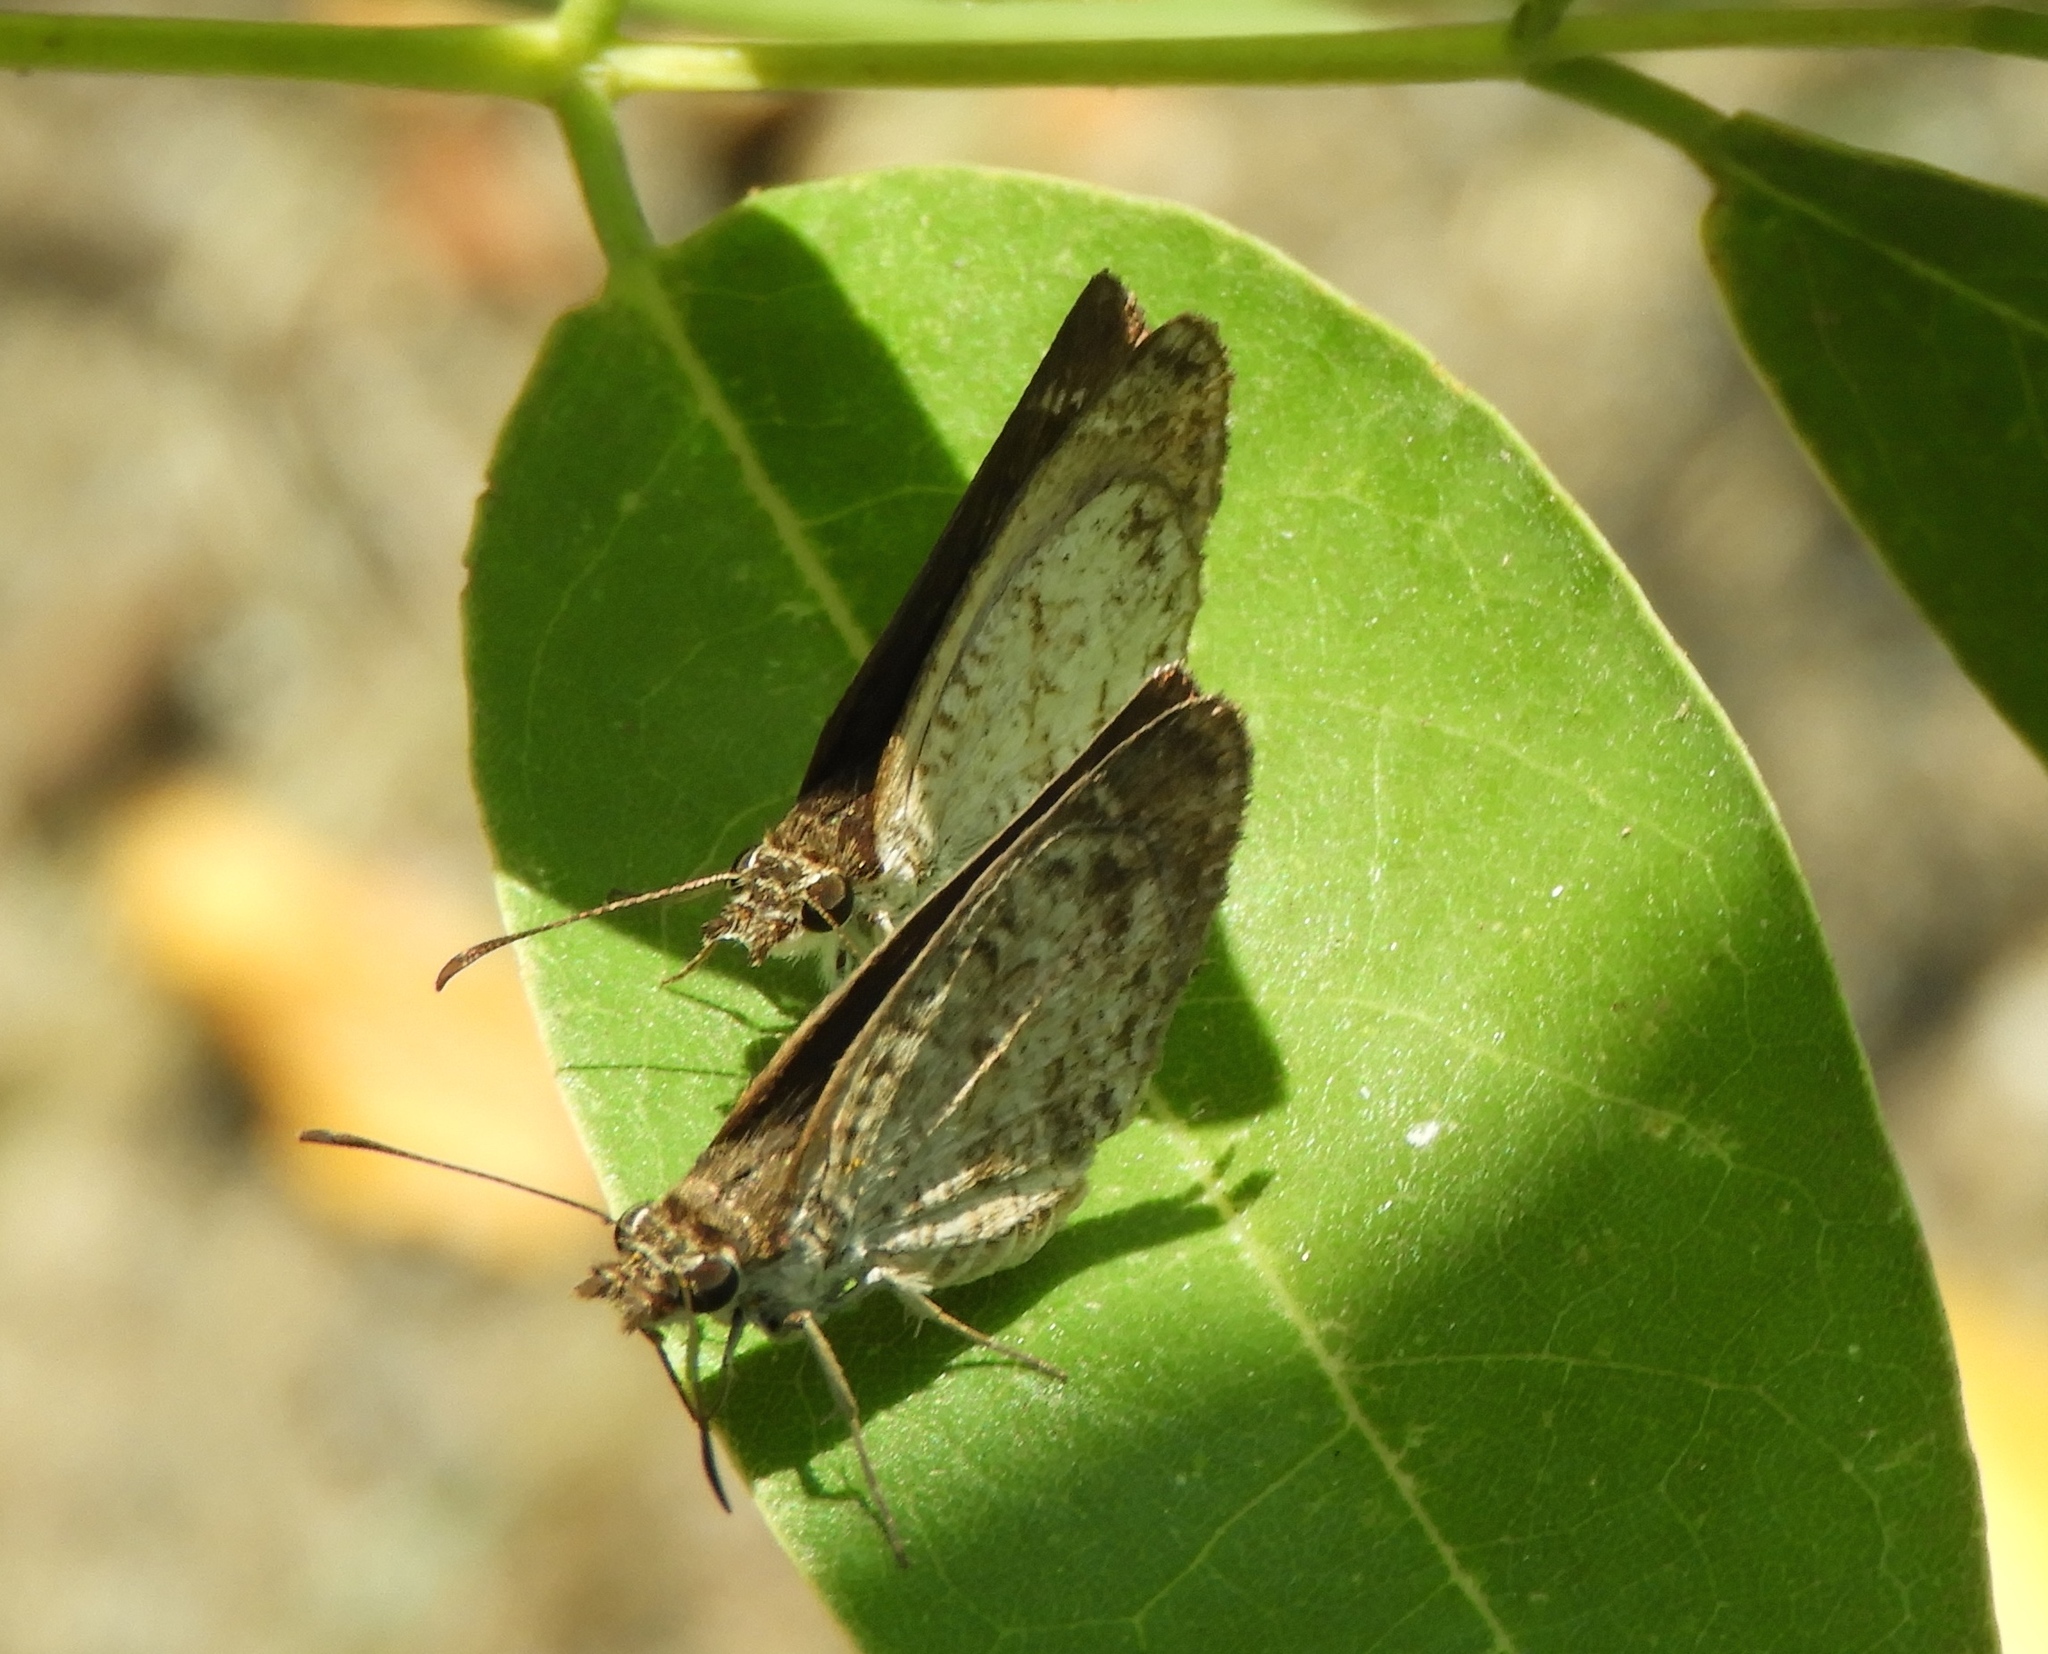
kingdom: Animalia
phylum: Arthropoda
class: Insecta
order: Lepidoptera
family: Hesperiidae
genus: Zopyrion
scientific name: Zopyrion sandace
